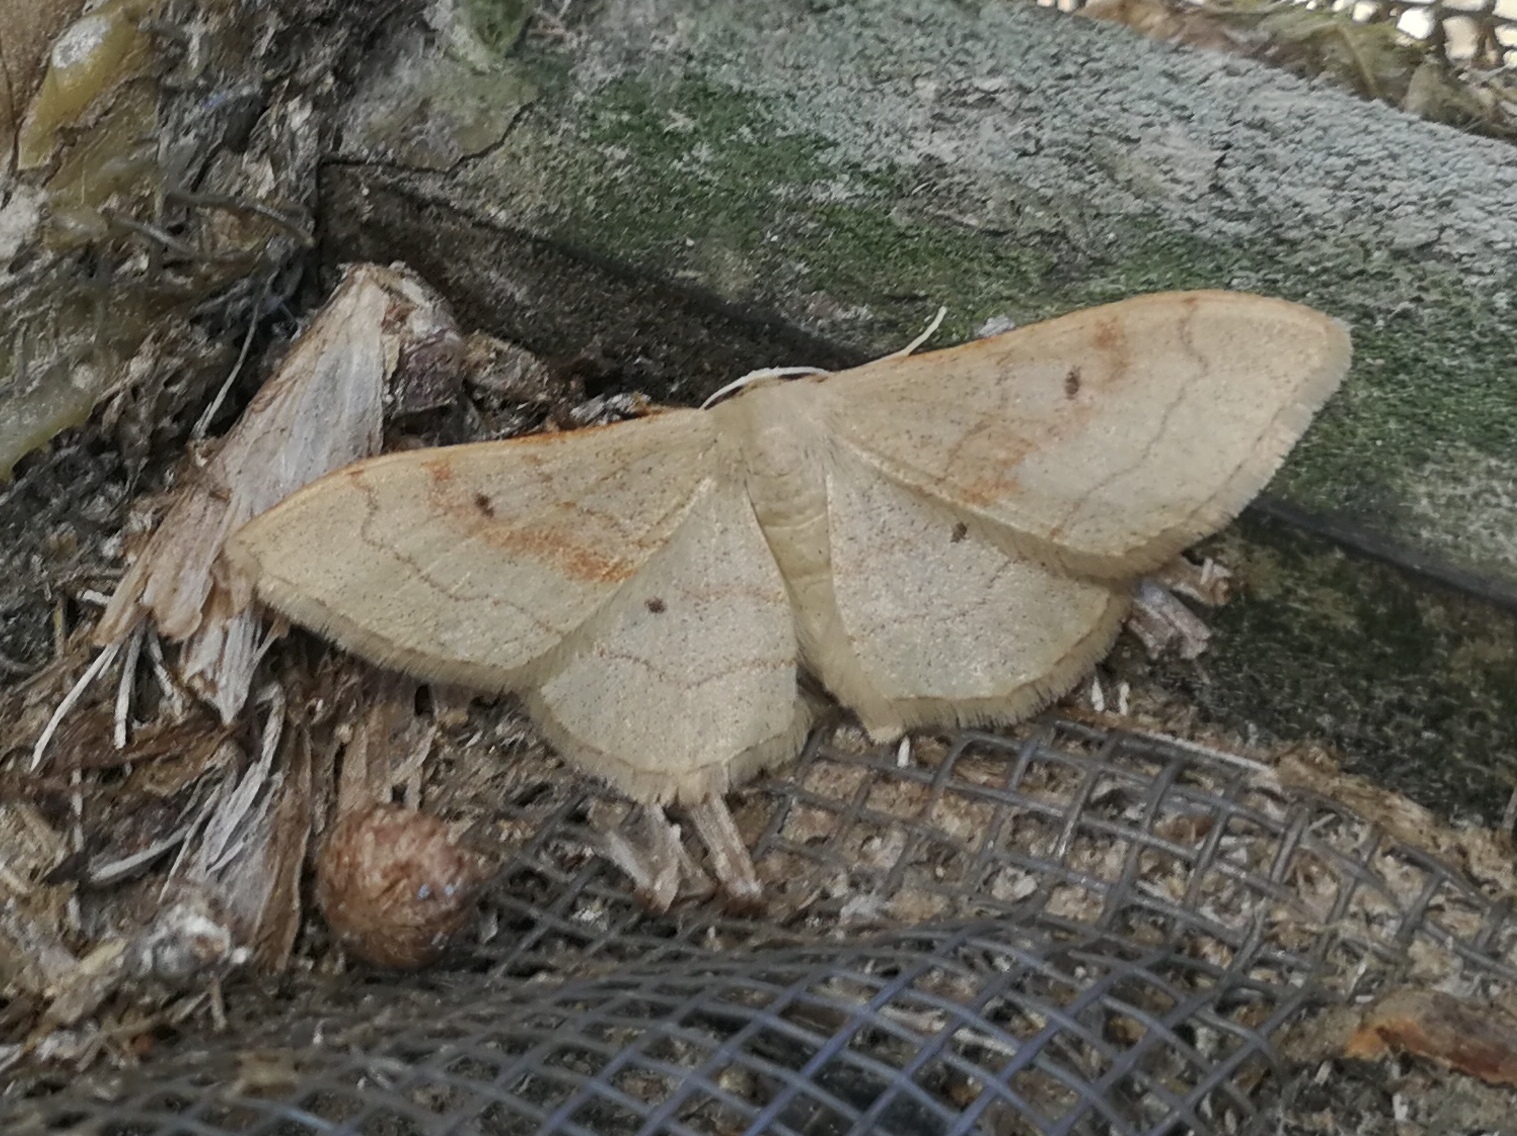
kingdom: Animalia
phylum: Arthropoda
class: Insecta
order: Lepidoptera
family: Geometridae
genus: Idaea
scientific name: Idaea bilinearia
